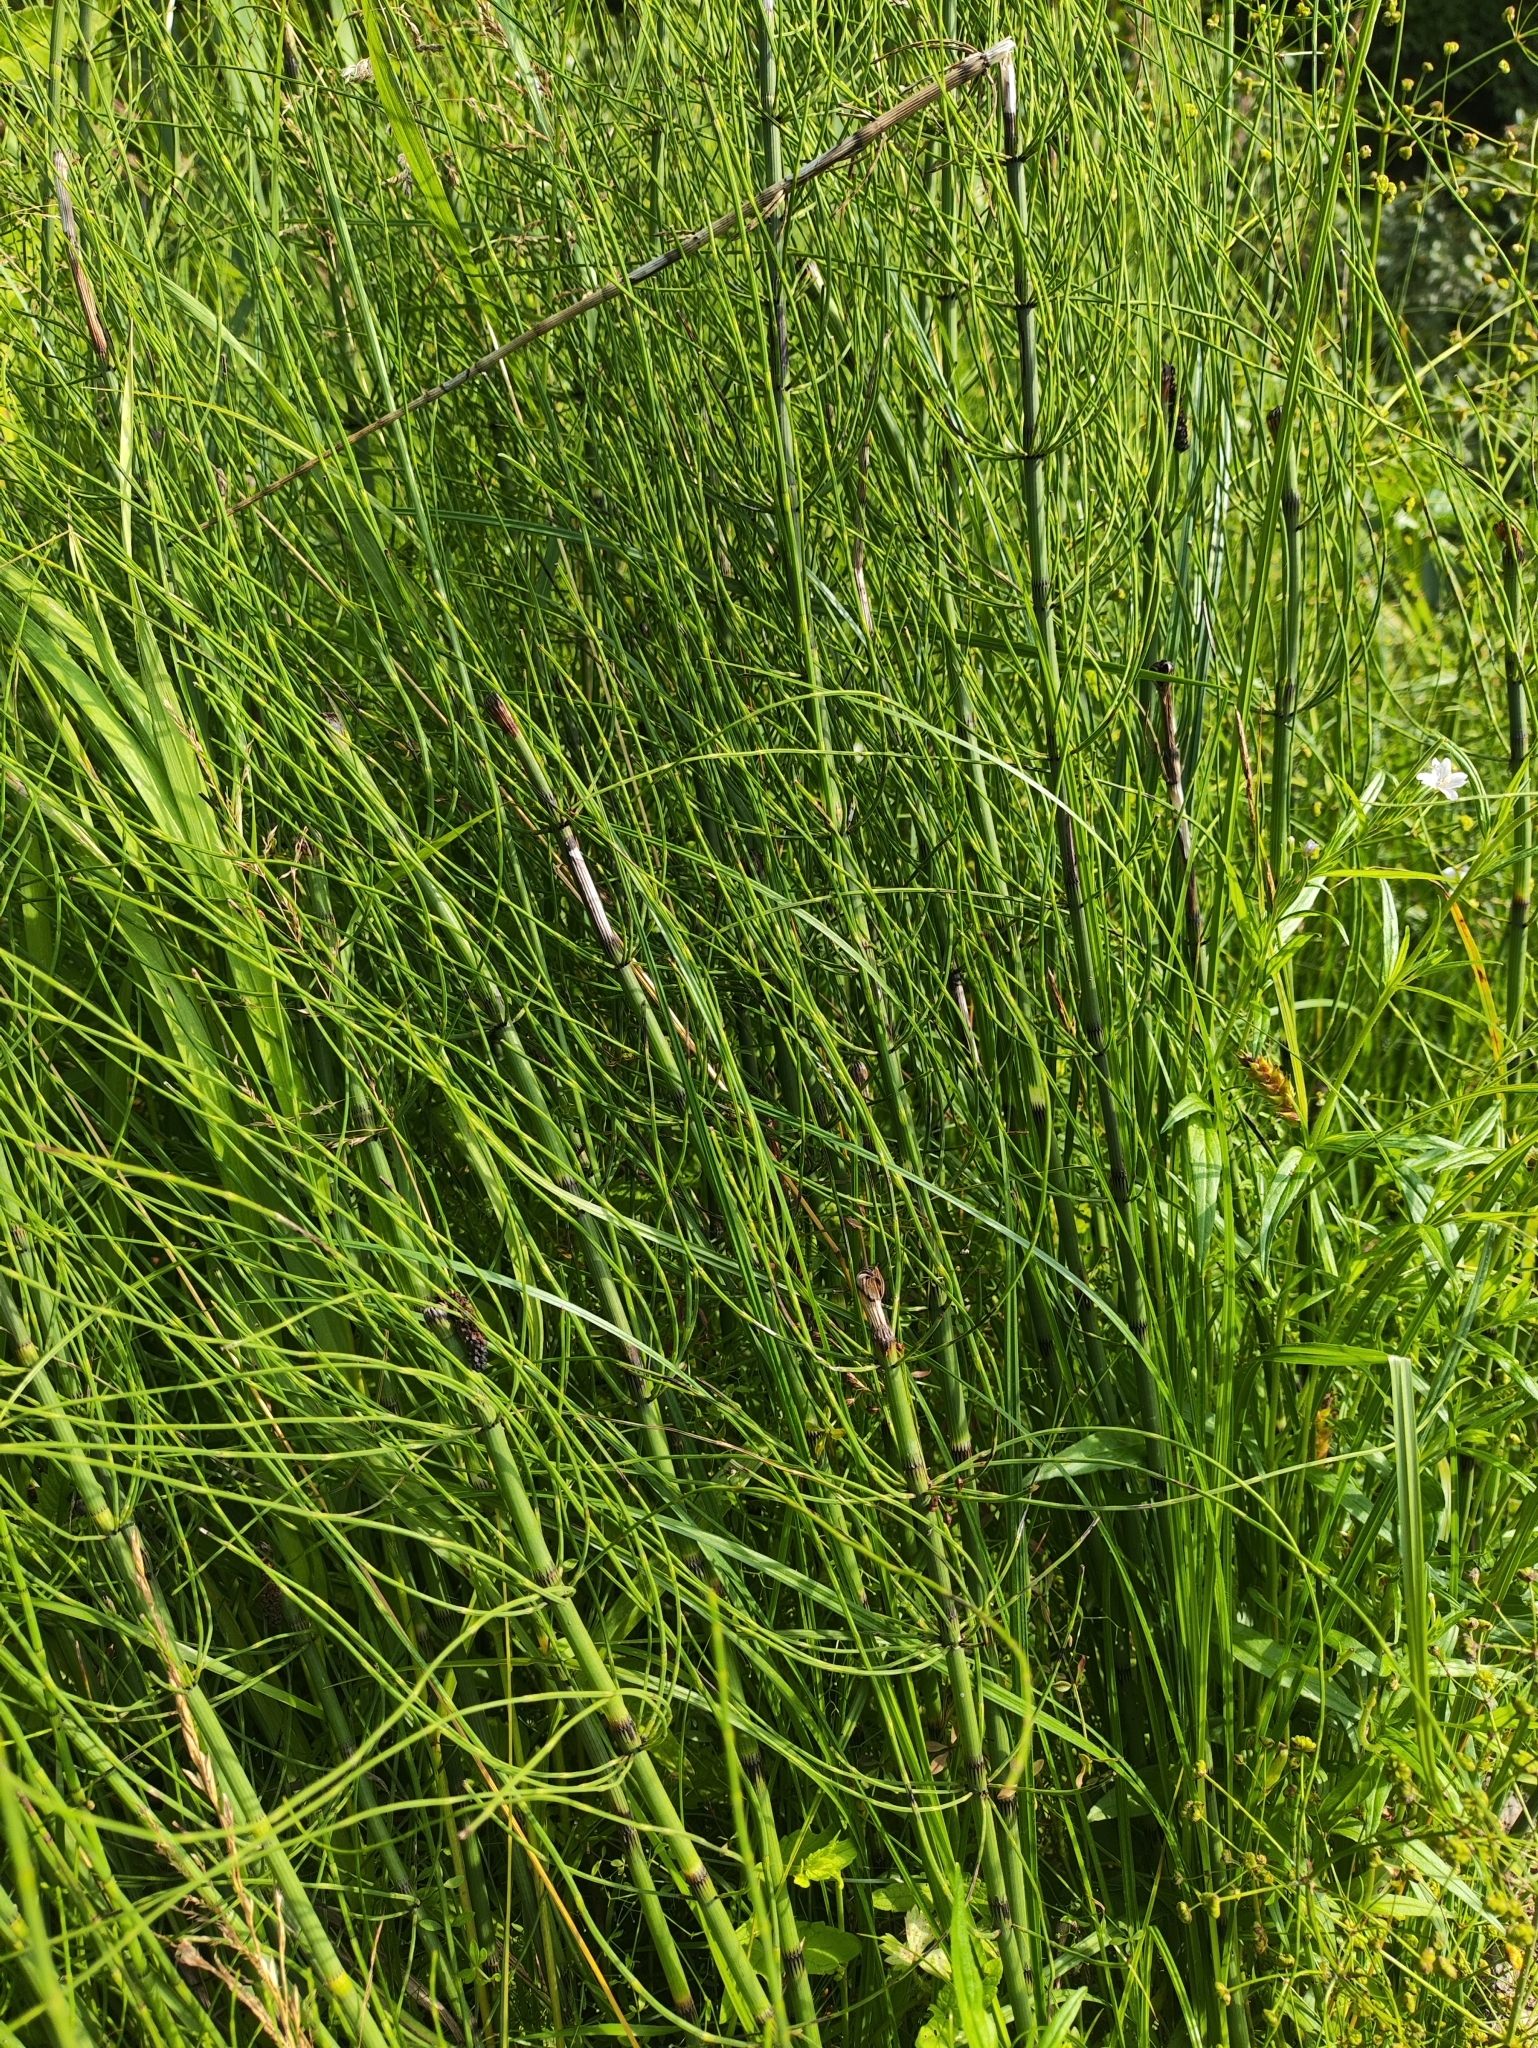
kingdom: Plantae
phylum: Tracheophyta
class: Polypodiopsida
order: Equisetales
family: Equisetaceae
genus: Equisetum
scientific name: Equisetum fluviatile
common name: Water horsetail
